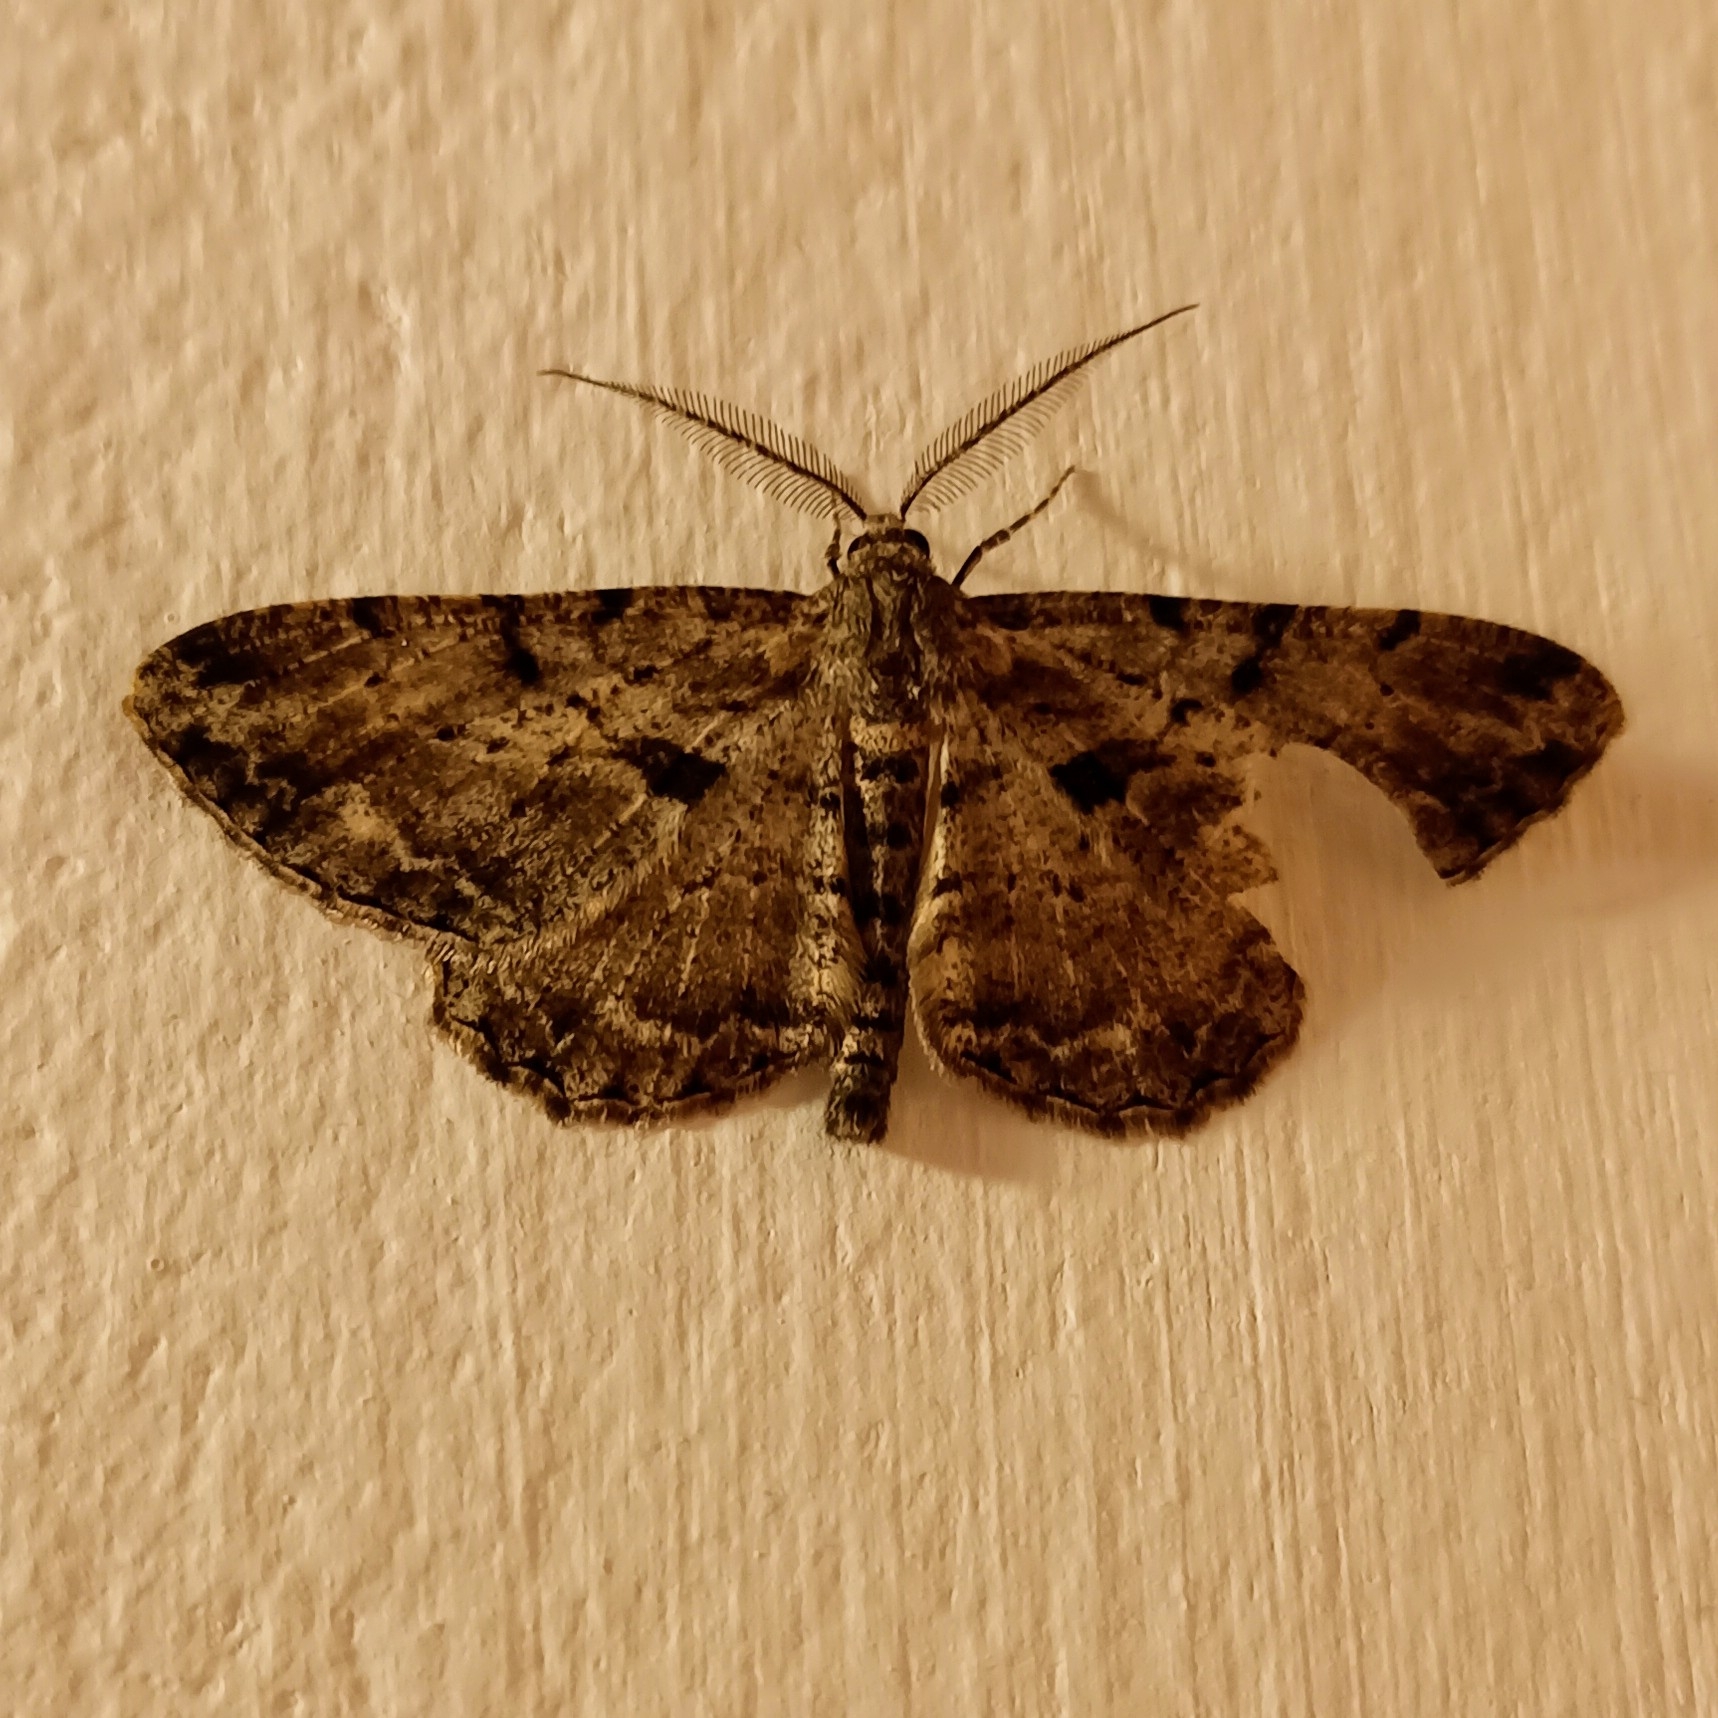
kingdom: Animalia
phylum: Arthropoda
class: Insecta
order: Lepidoptera
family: Geometridae
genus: Peribatodes
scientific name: Peribatodes rhomboidaria
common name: Willow beauty
